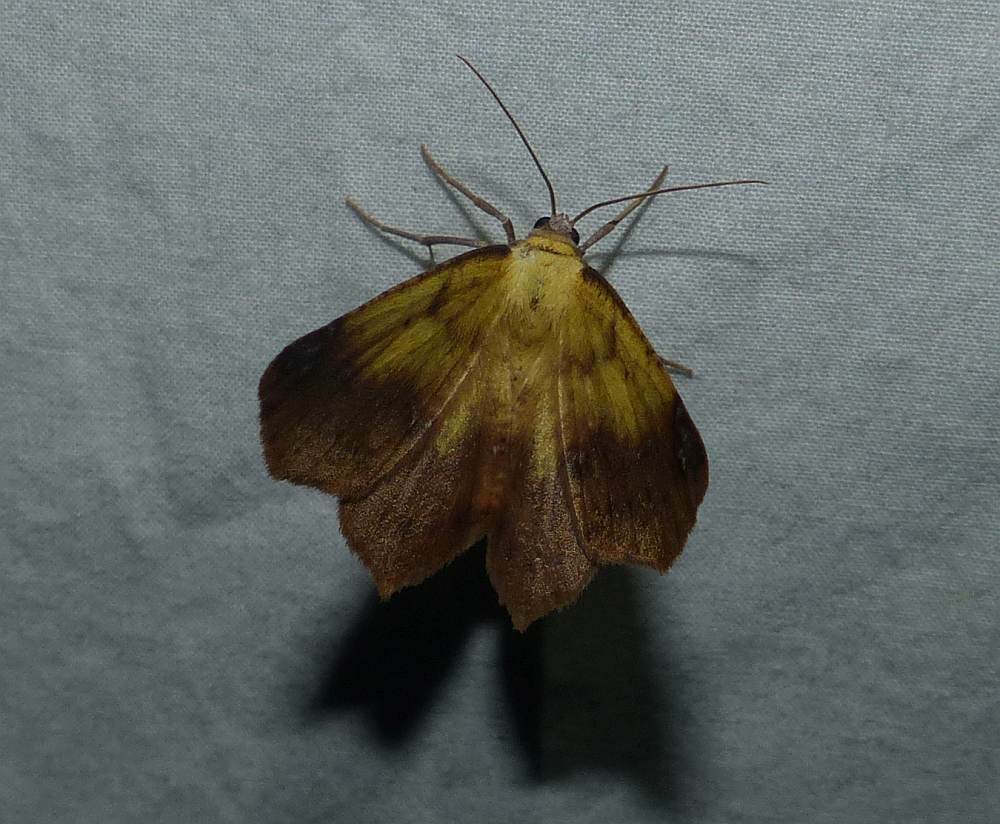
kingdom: Animalia
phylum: Arthropoda
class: Insecta
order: Lepidoptera
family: Geometridae
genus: Antepione
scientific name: Antepione thisoaria
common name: Variable antipione
